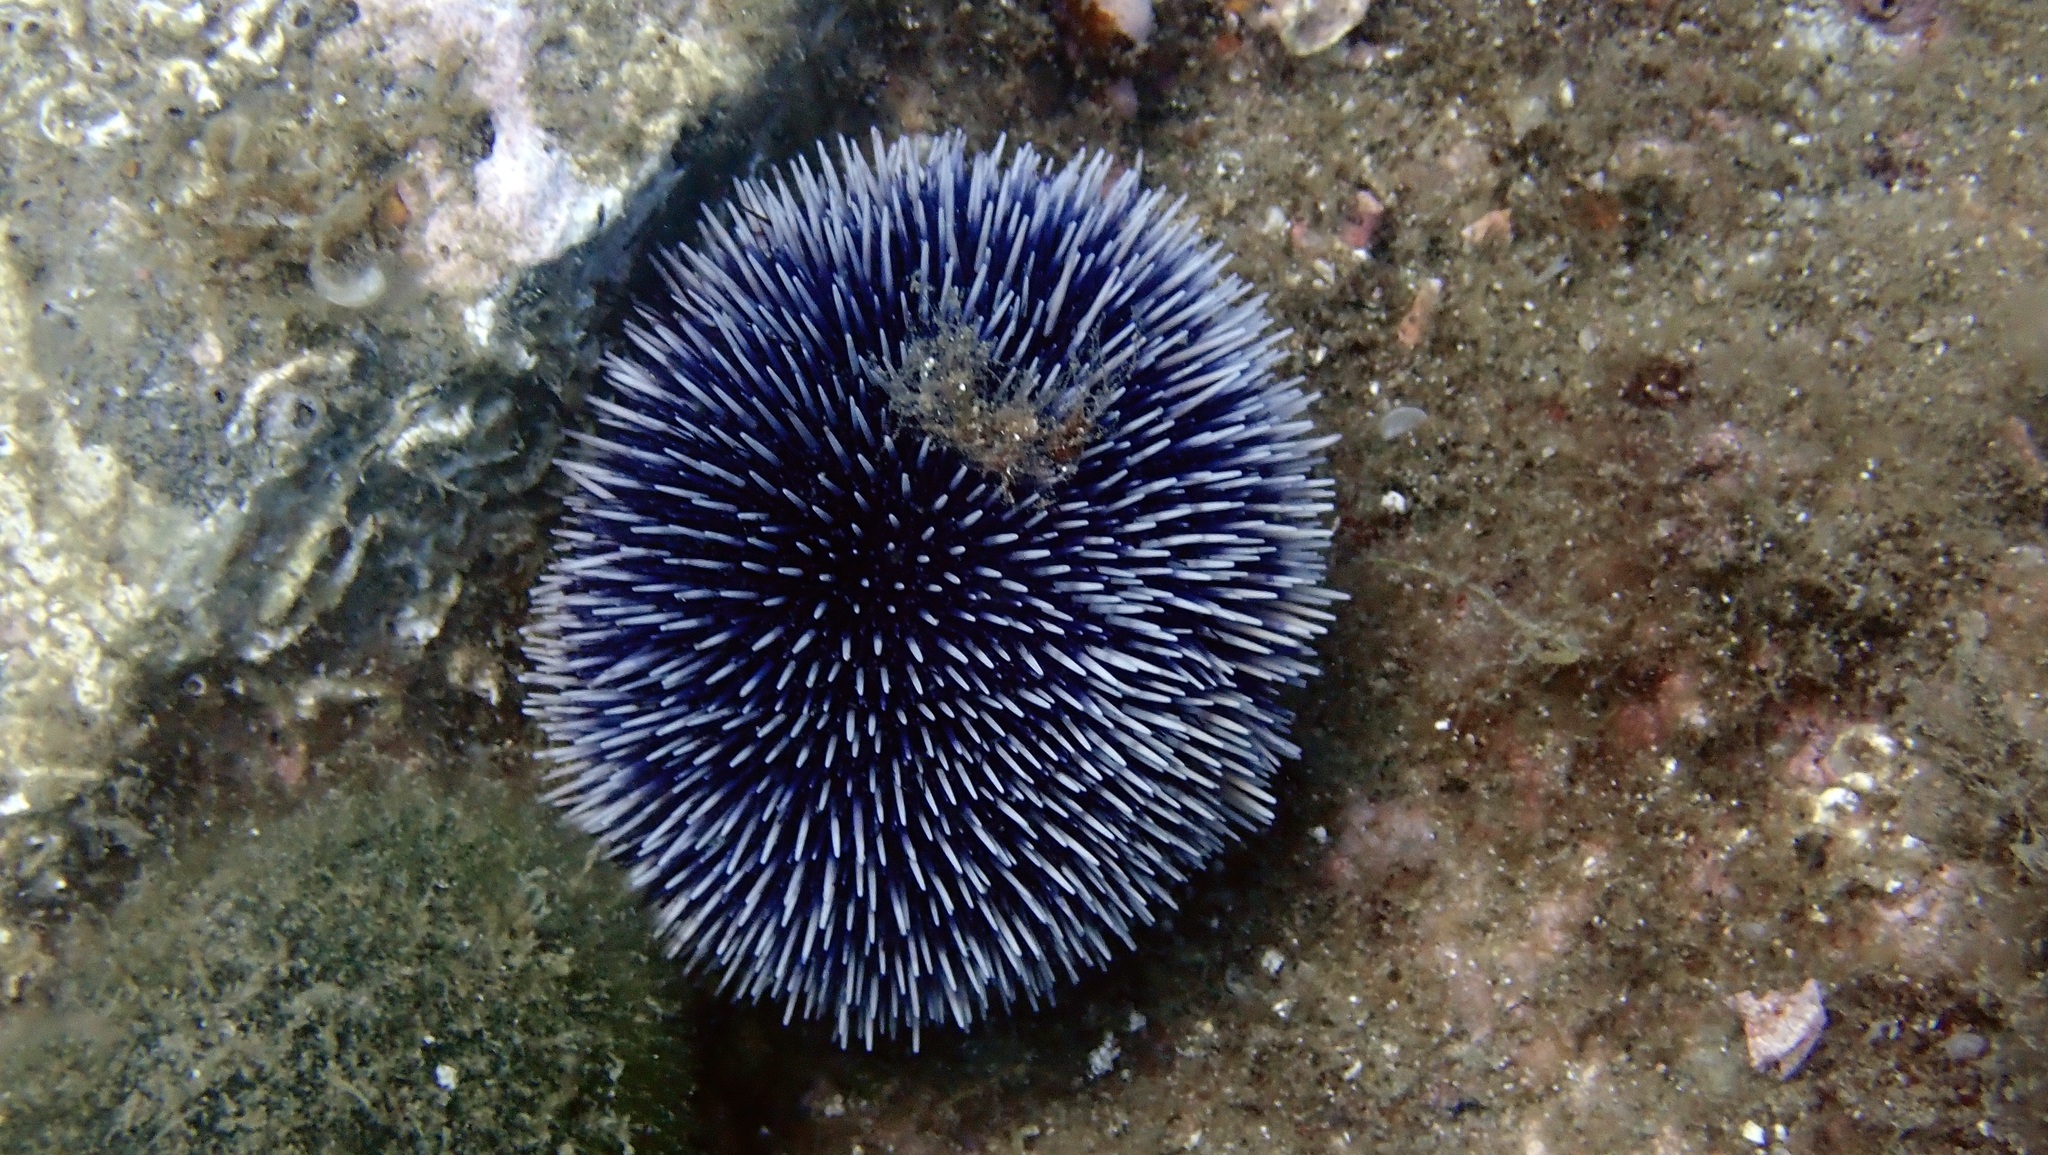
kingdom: Animalia
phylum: Echinodermata
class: Echinoidea
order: Camarodonta
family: Toxopneustidae
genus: Sphaerechinus
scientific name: Sphaerechinus granularis
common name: Violet sea urchin
